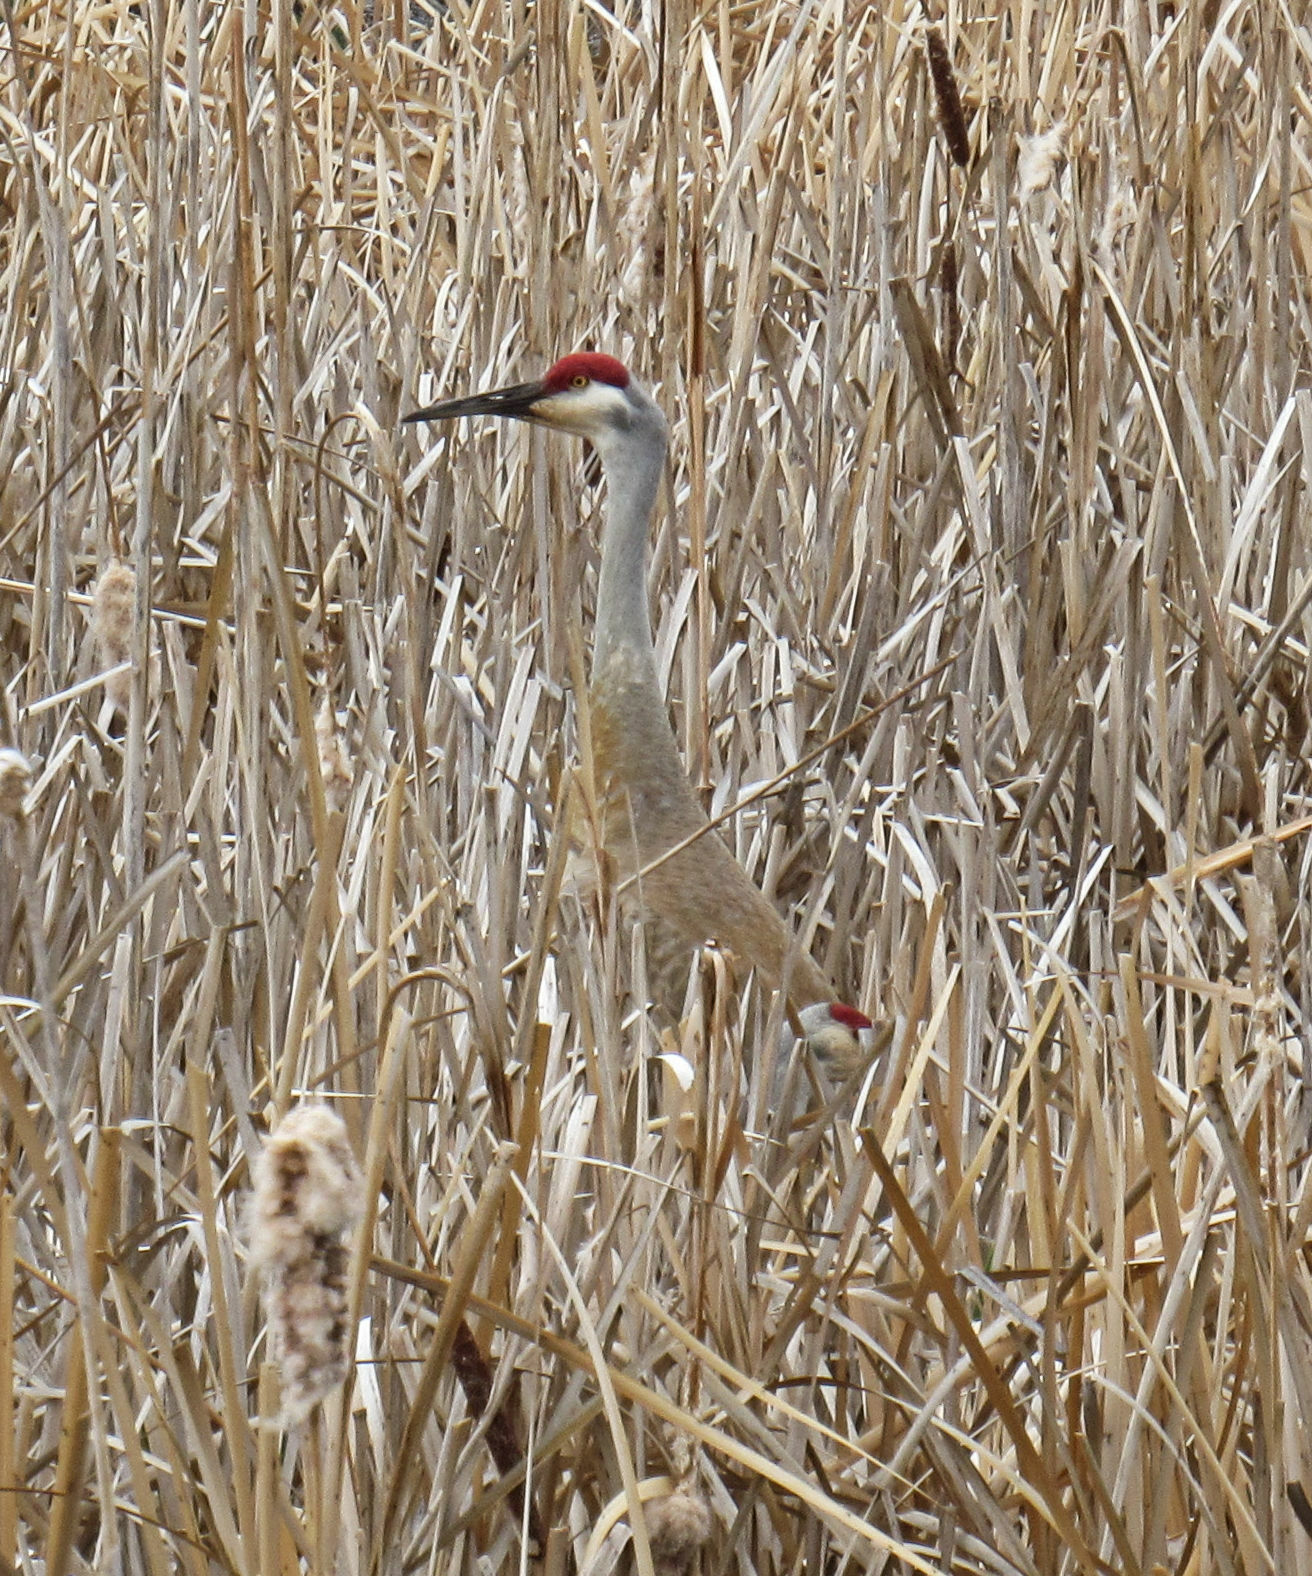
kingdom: Animalia
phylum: Chordata
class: Aves
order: Gruiformes
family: Gruidae
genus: Grus
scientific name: Grus canadensis
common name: Sandhill crane
